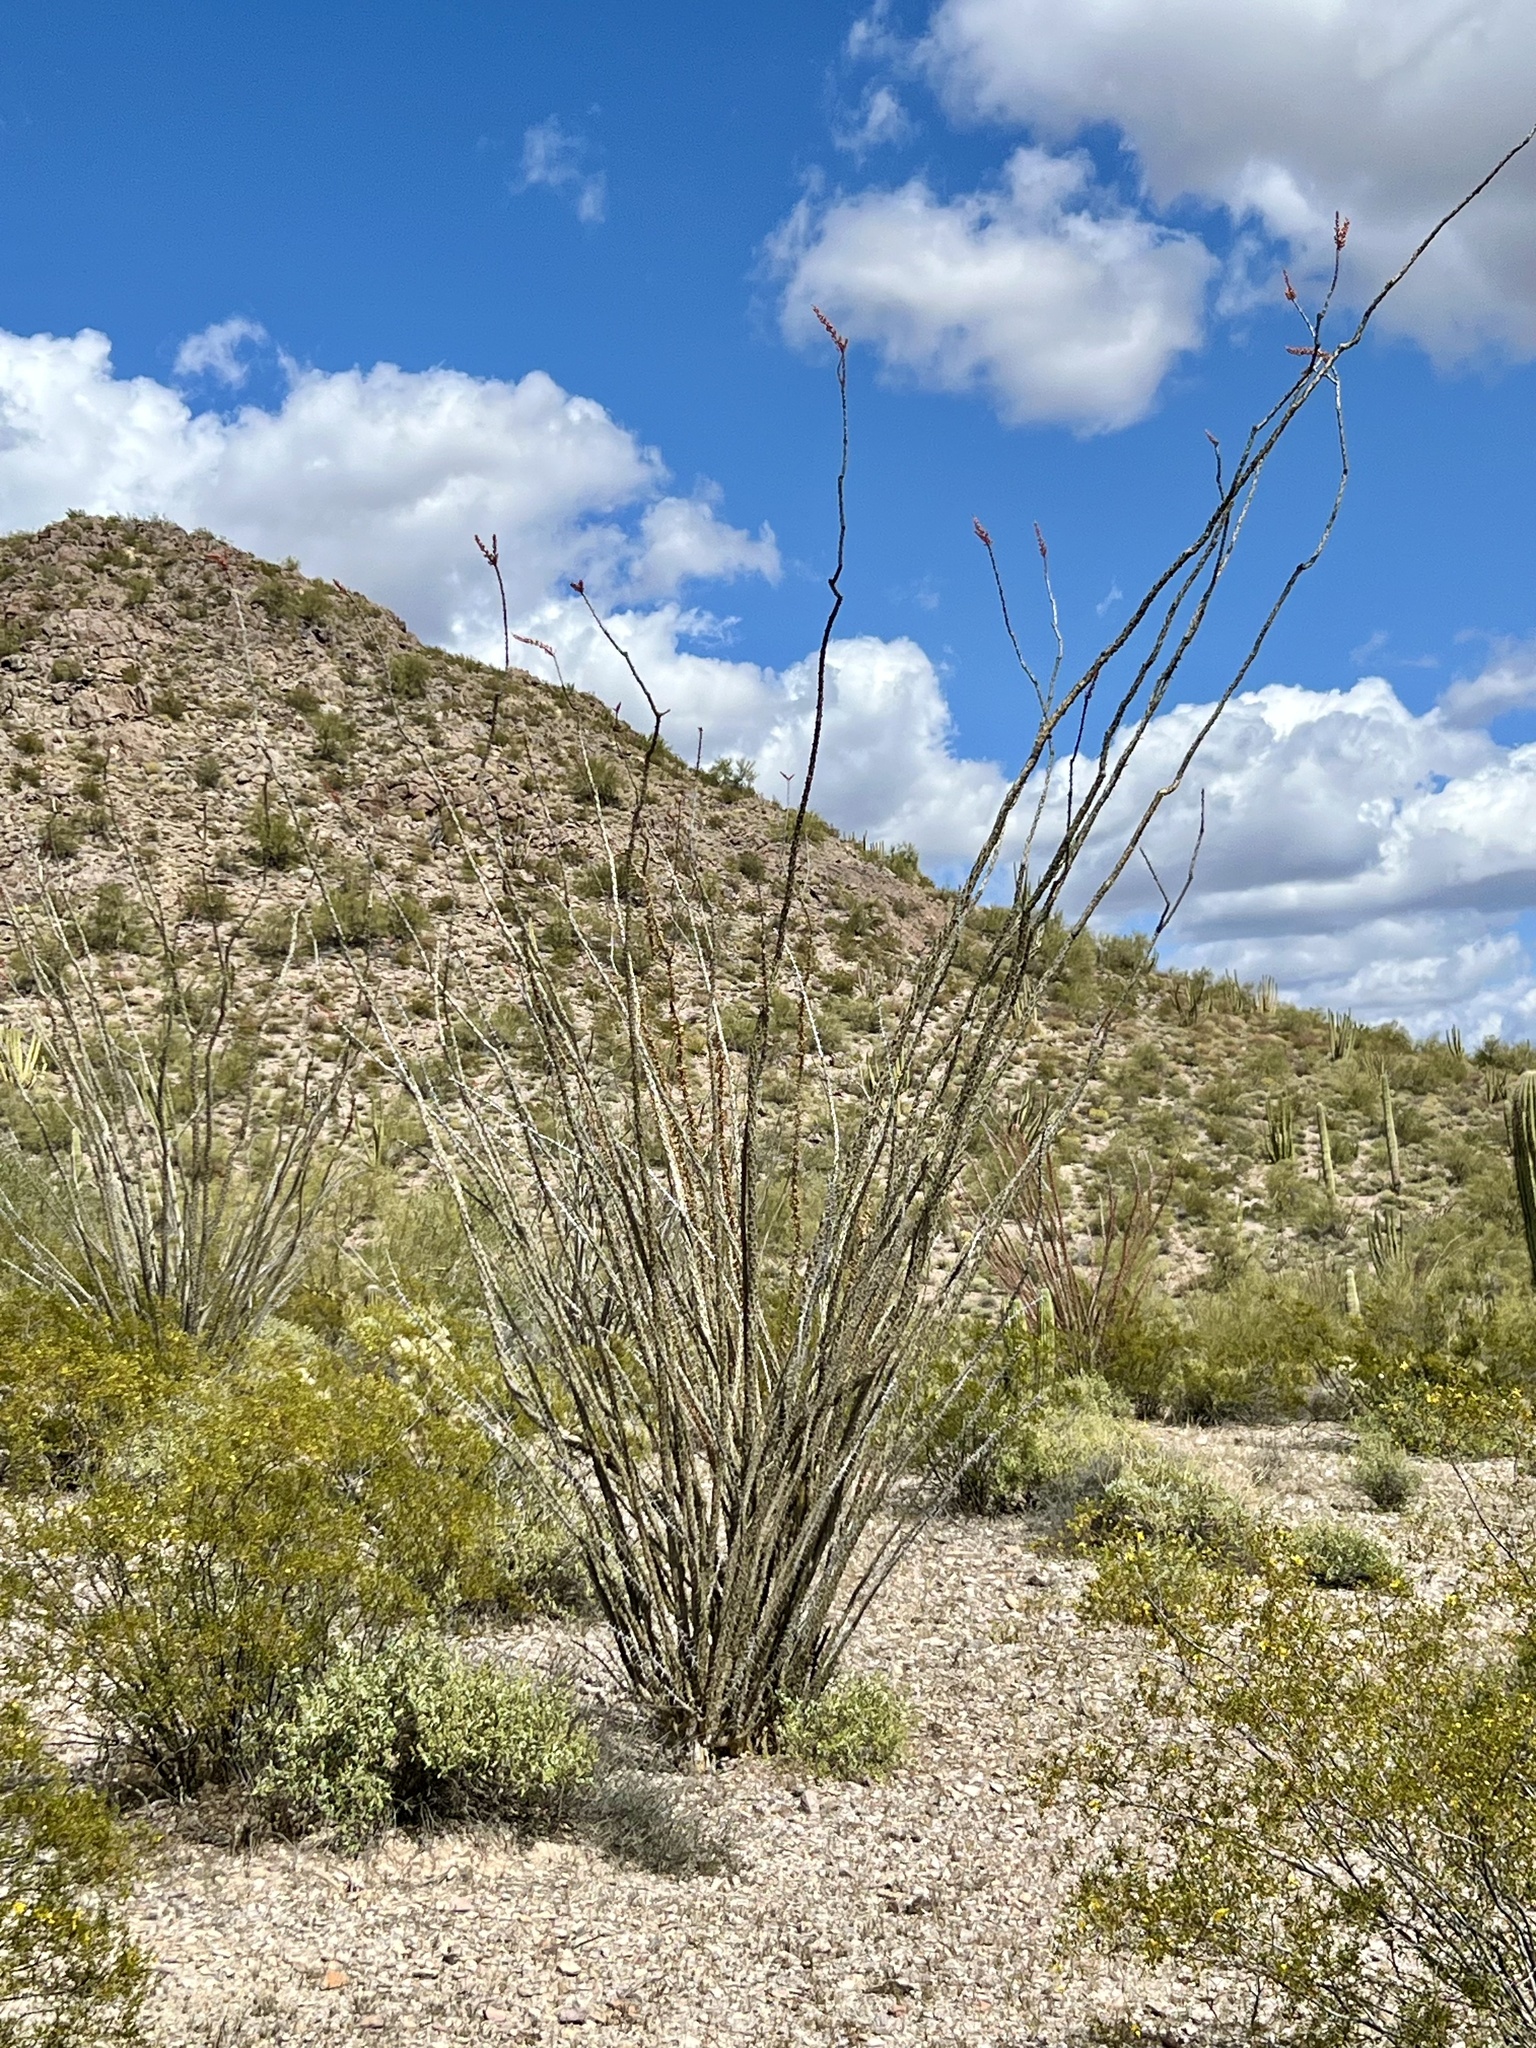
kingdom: Plantae
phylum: Tracheophyta
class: Magnoliopsida
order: Ericales
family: Fouquieriaceae
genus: Fouquieria
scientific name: Fouquieria splendens
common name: Vine-cactus
